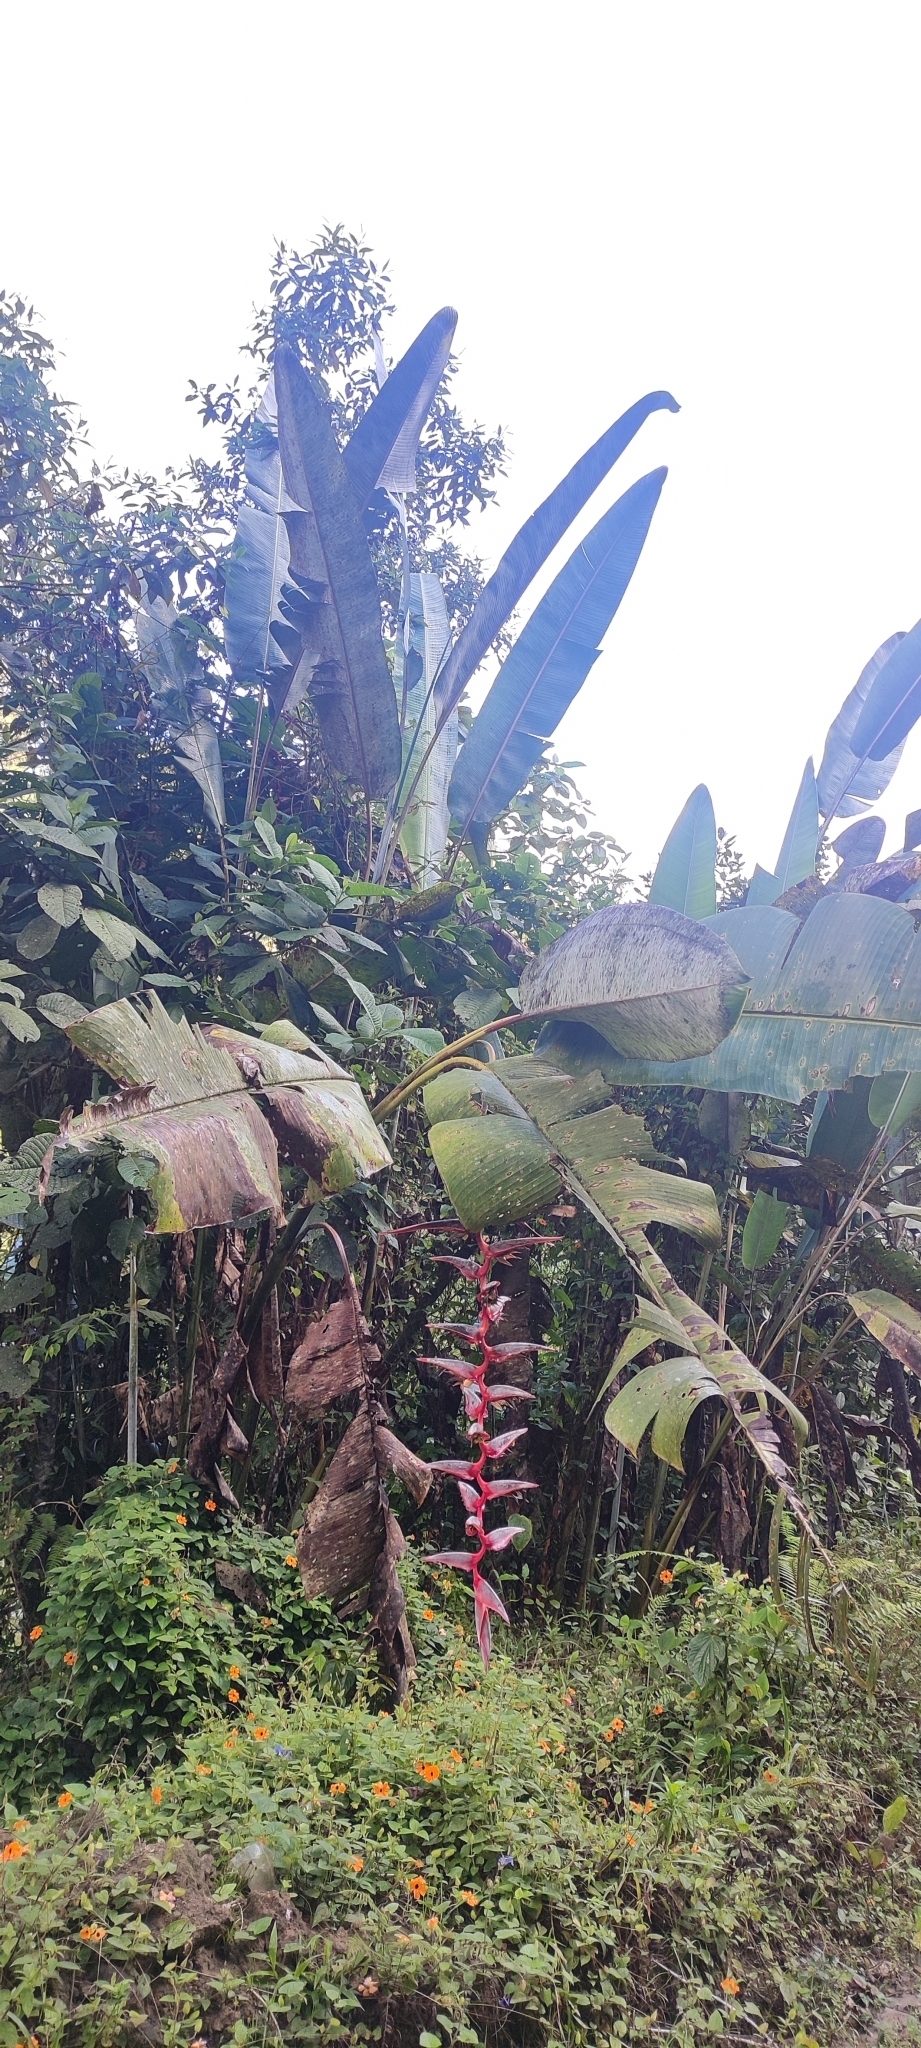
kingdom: Plantae
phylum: Tracheophyta
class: Liliopsida
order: Zingiberales
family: Heliconiaceae
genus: Heliconia
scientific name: Heliconia griggsiana
